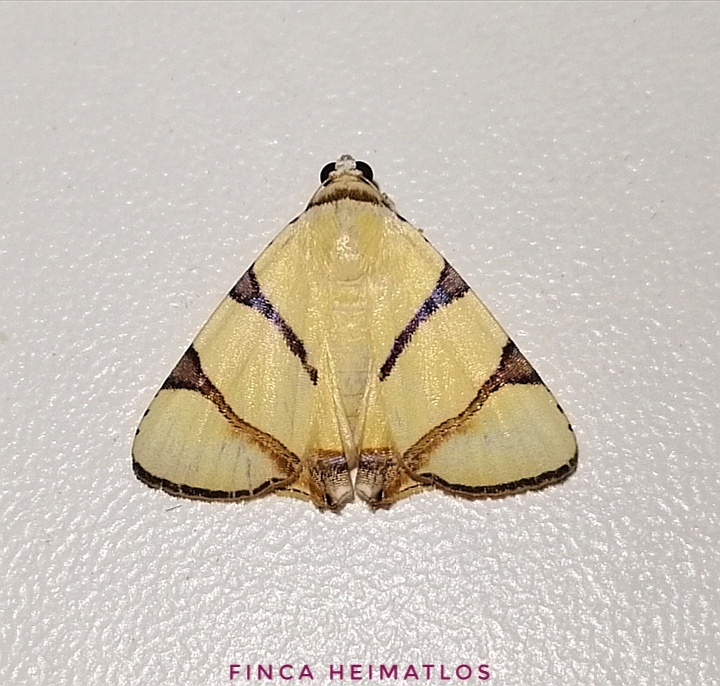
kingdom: Animalia
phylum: Arthropoda
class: Insecta
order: Lepidoptera
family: Erebidae
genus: Eulepidotis
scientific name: Eulepidotis affinis
